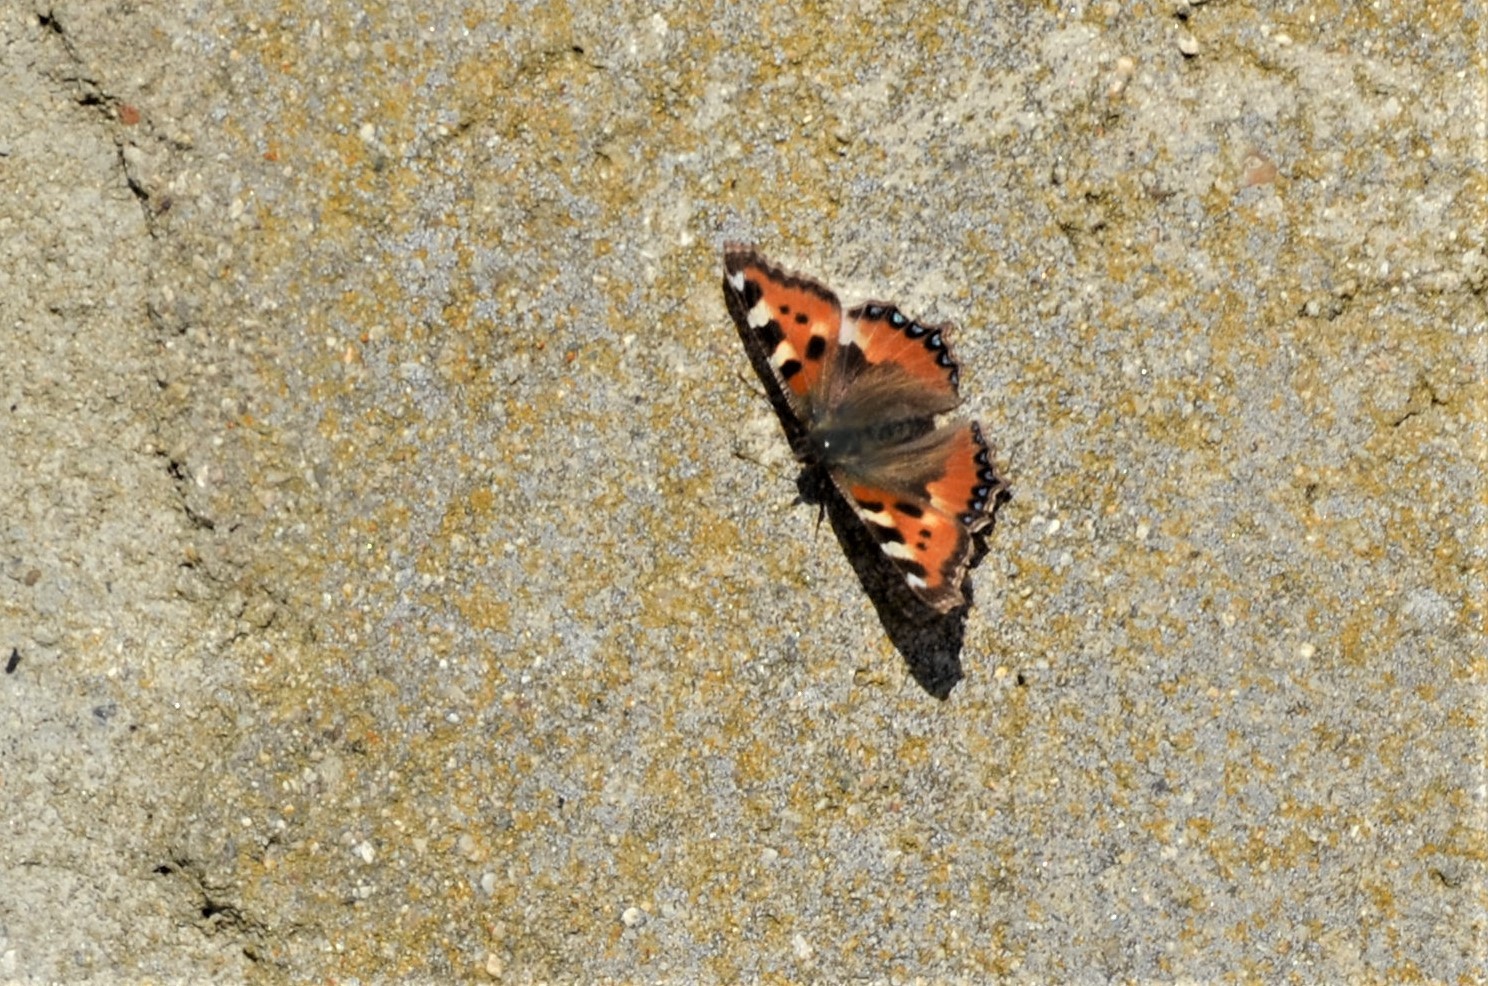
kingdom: Animalia
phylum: Arthropoda
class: Insecta
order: Lepidoptera
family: Nymphalidae
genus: Aglais
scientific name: Aglais urticae
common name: Small tortoiseshell
